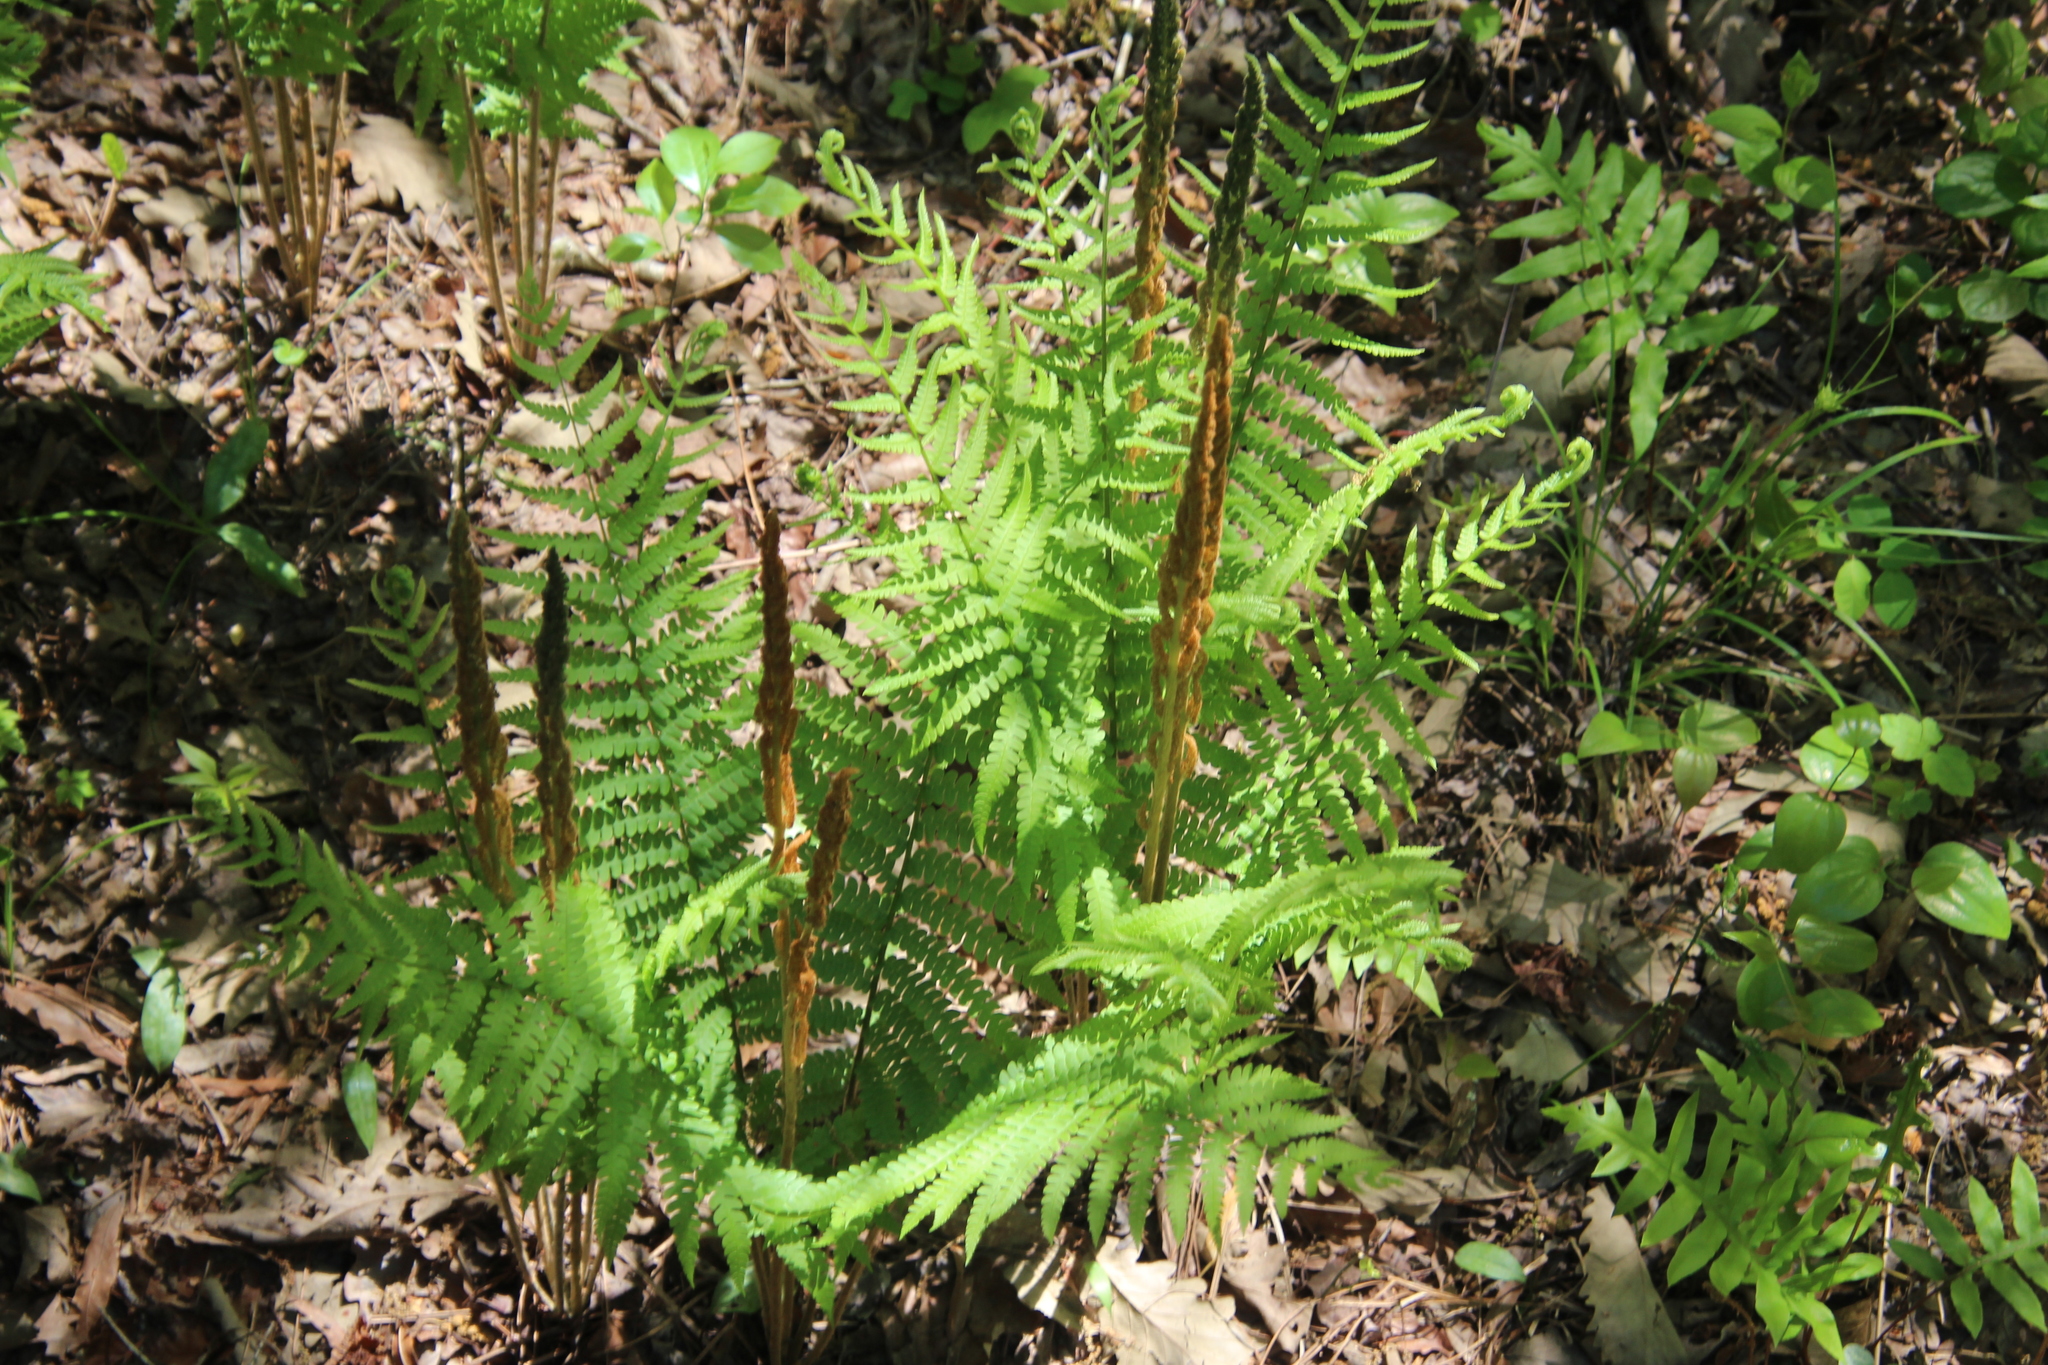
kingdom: Plantae
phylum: Tracheophyta
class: Polypodiopsida
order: Osmundales
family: Osmundaceae
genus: Osmundastrum
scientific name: Osmundastrum cinnamomeum
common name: Cinnamon fern
